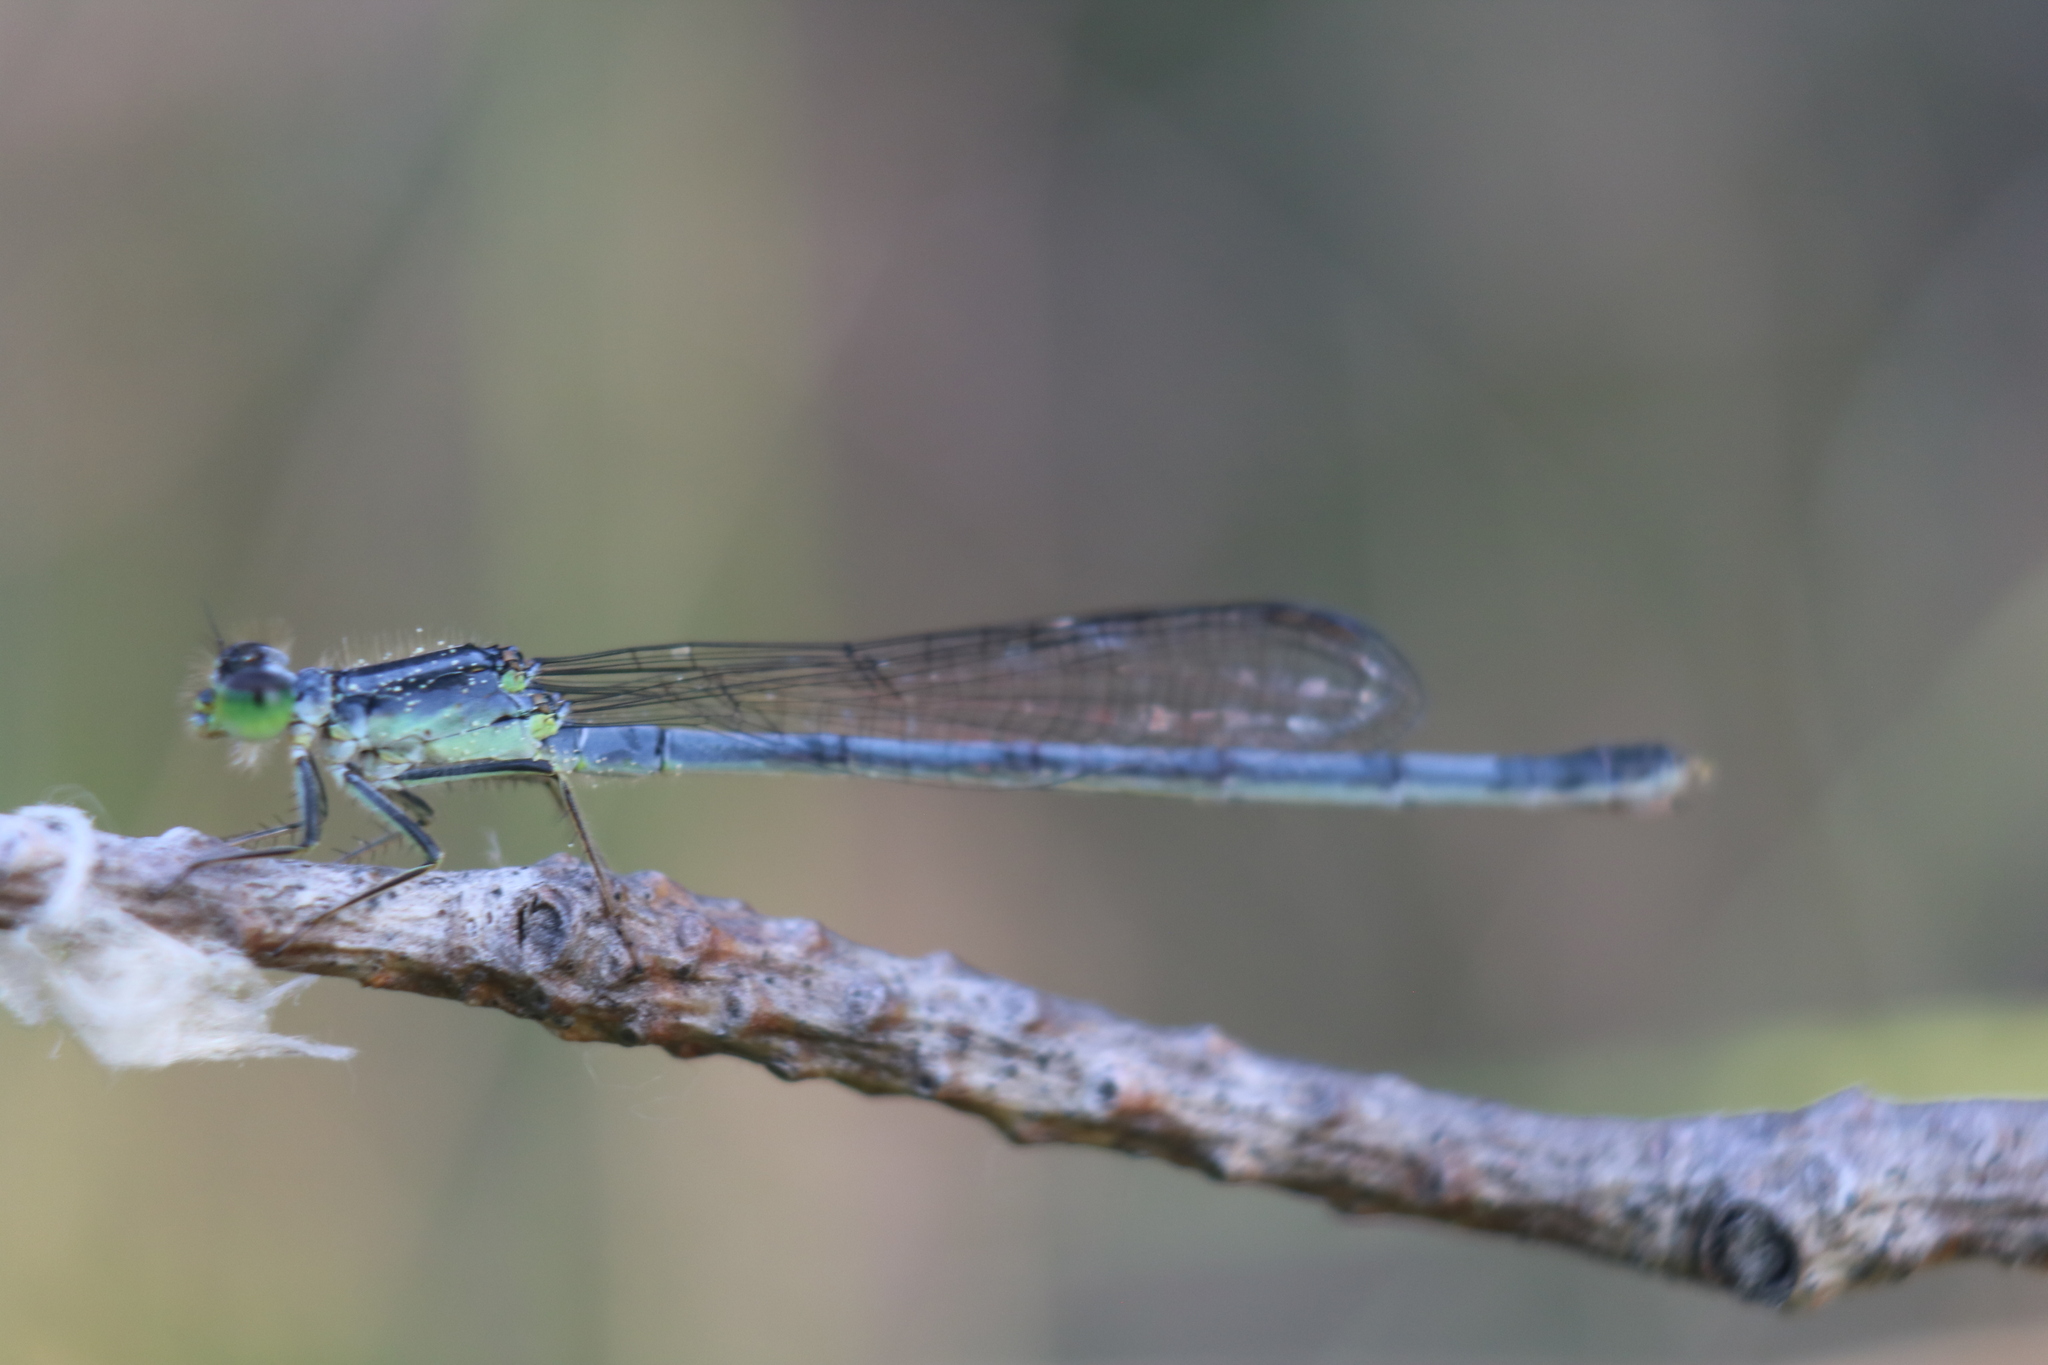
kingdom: Animalia
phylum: Arthropoda
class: Insecta
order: Odonata
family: Coenagrionidae
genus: Ischnura
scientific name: Ischnura verticalis
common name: Eastern forktail
